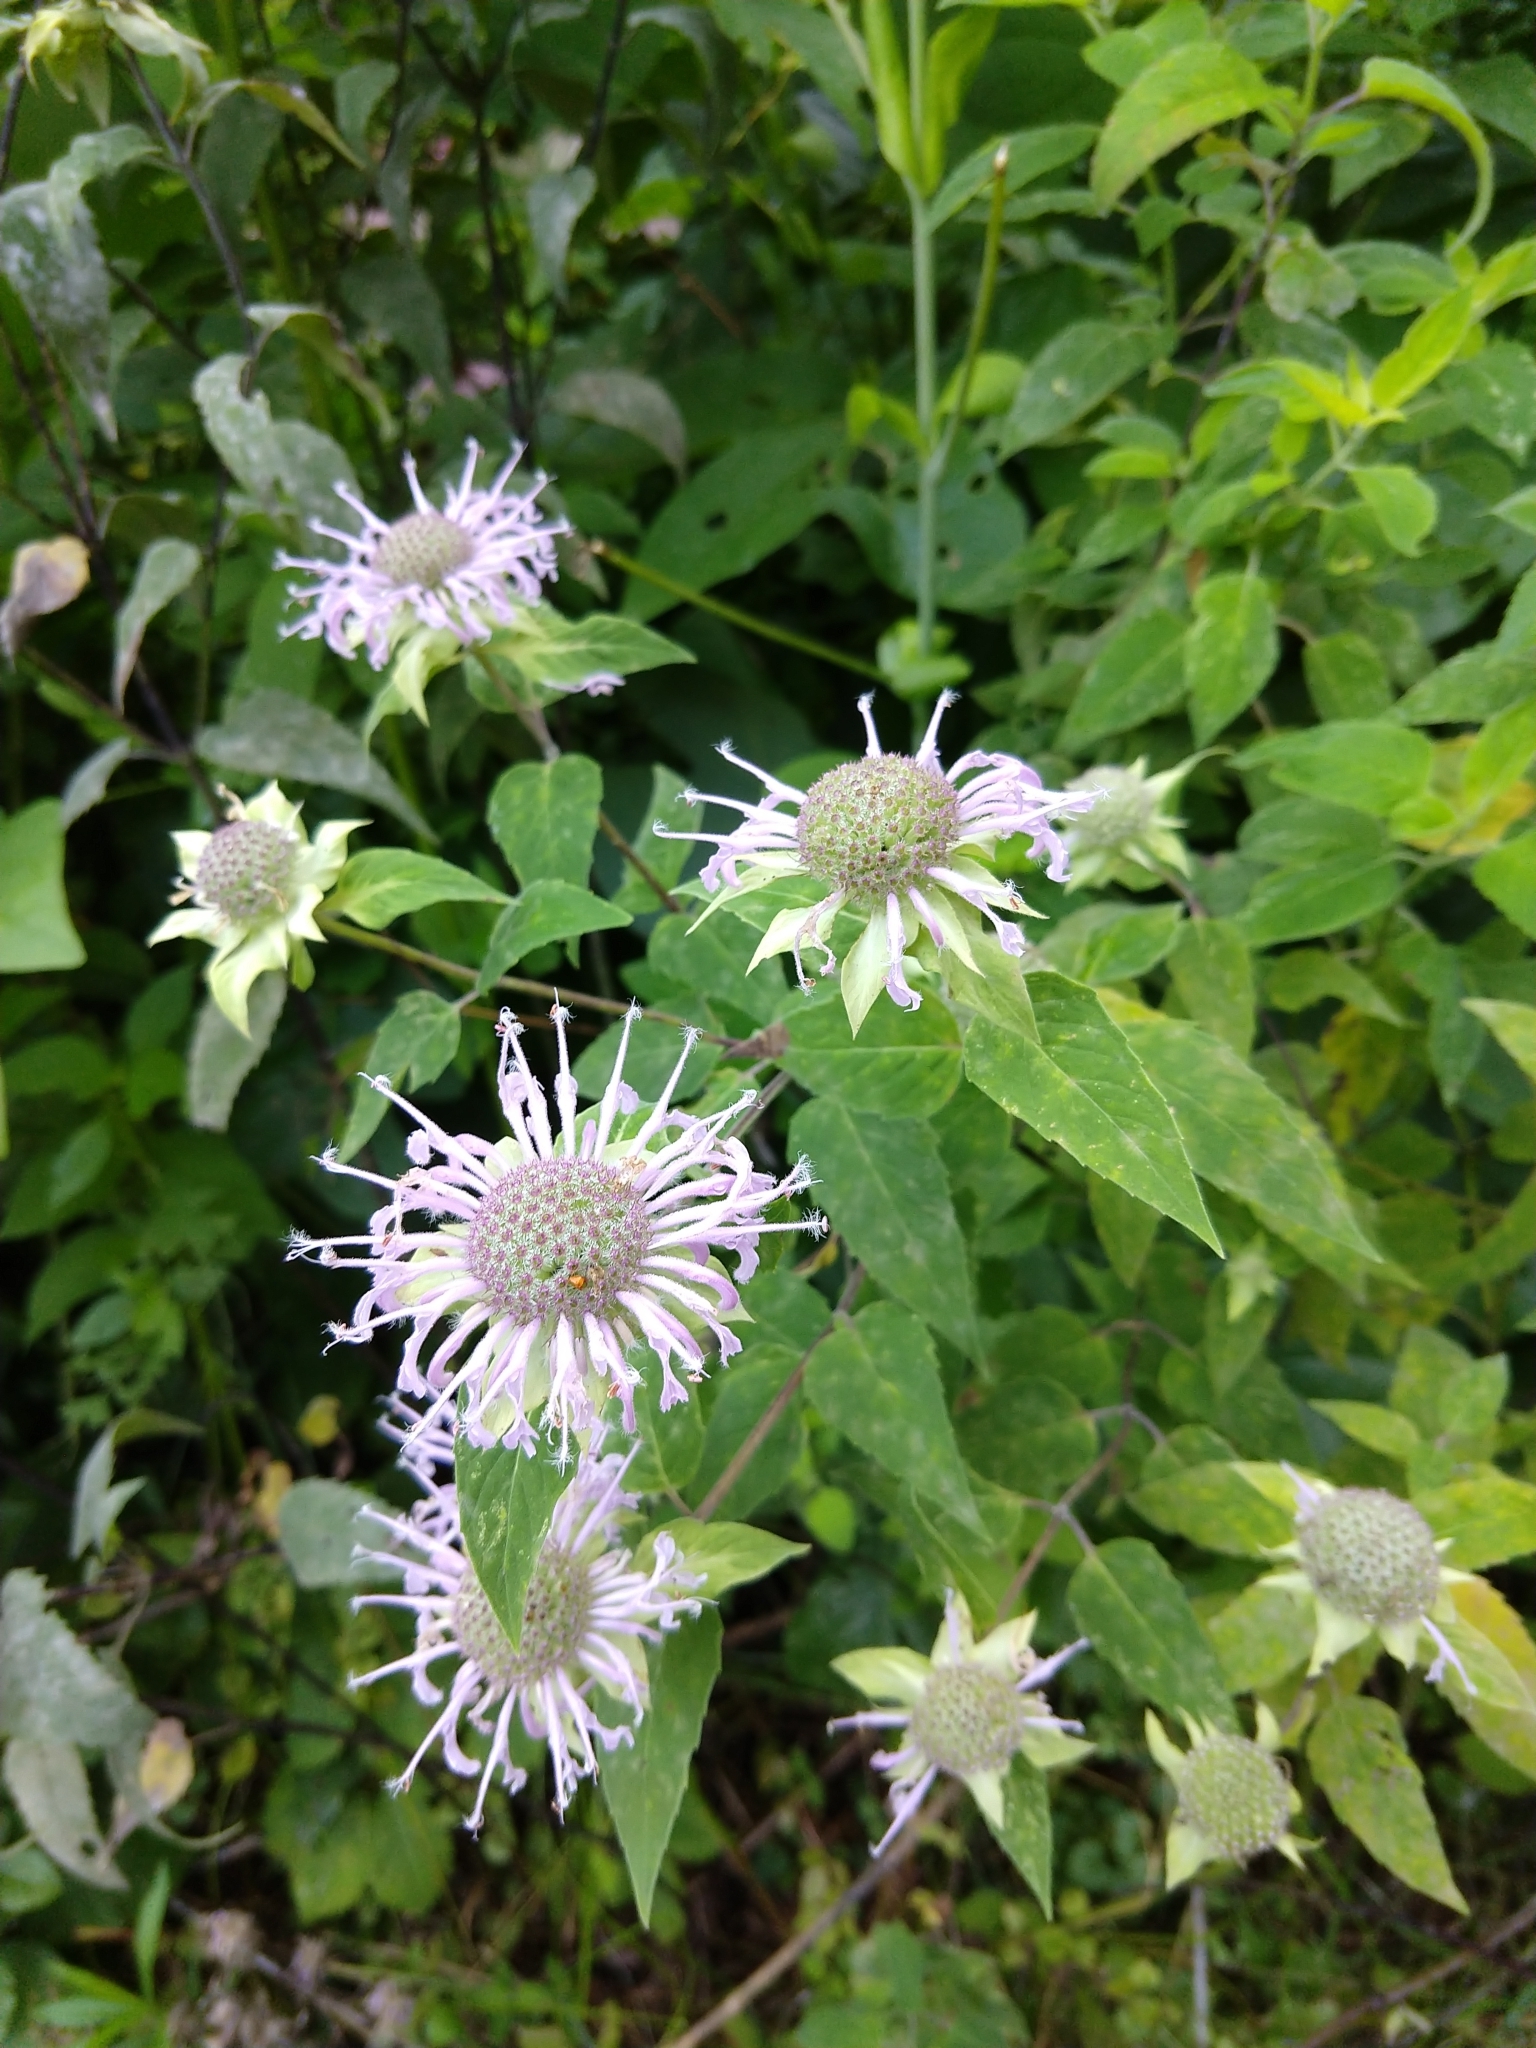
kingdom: Plantae
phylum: Tracheophyta
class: Magnoliopsida
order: Lamiales
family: Lamiaceae
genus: Monarda
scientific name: Monarda fistulosa
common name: Purple beebalm
